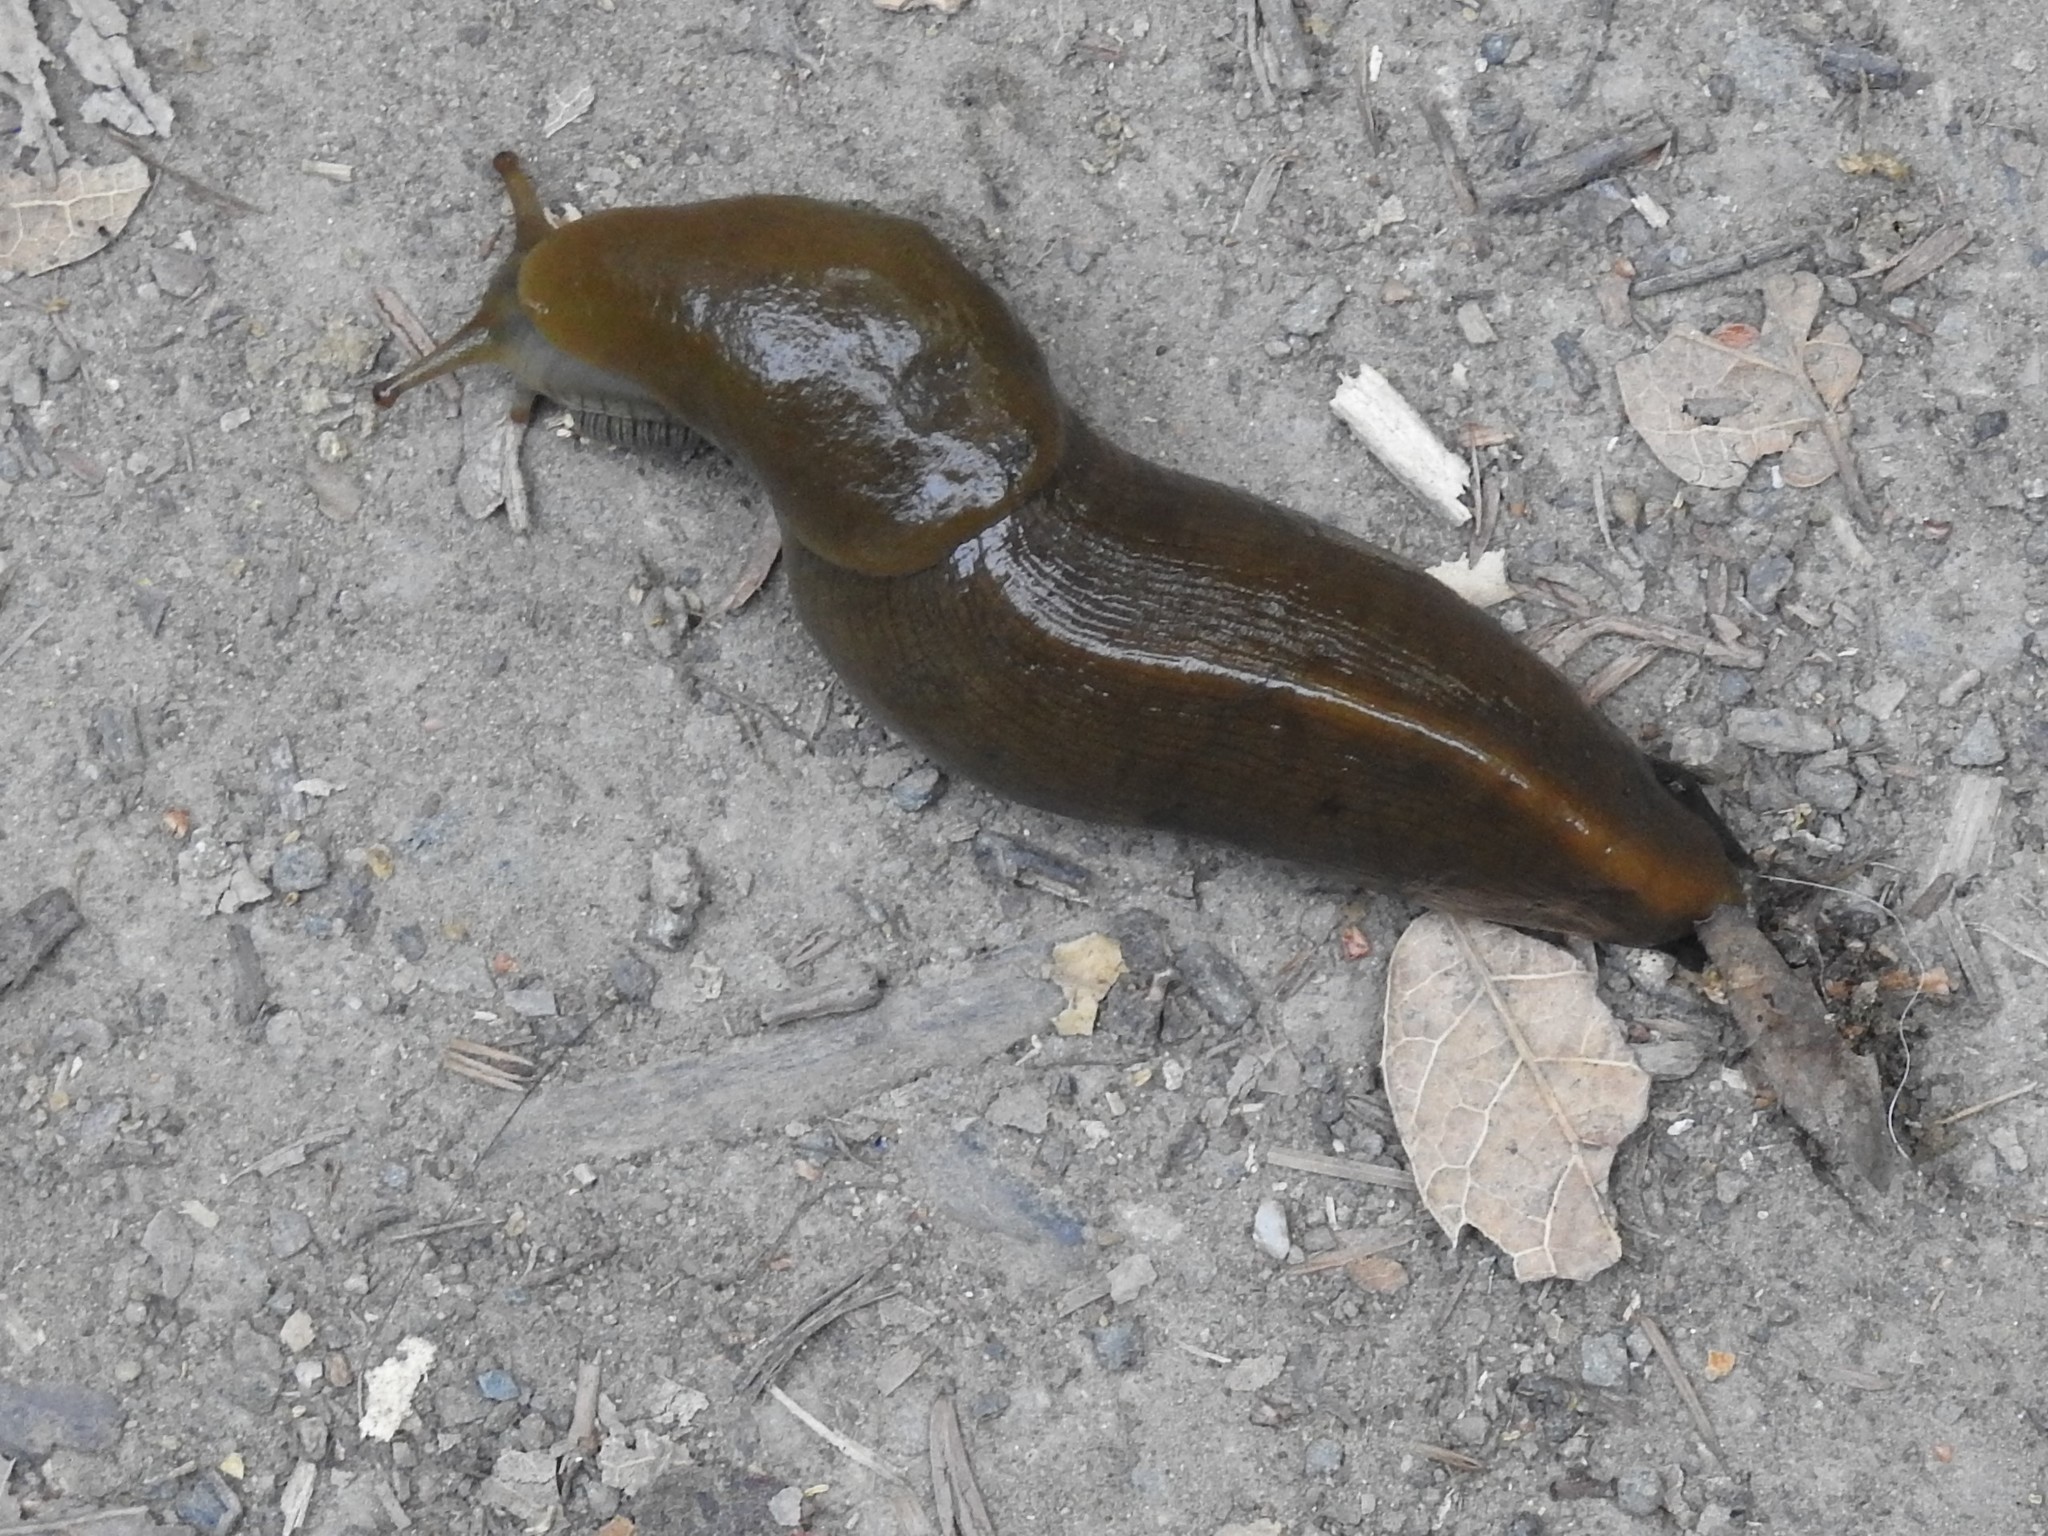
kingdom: Animalia
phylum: Mollusca
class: Gastropoda
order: Stylommatophora
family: Ariolimacidae
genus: Ariolimax
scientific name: Ariolimax buttoni
